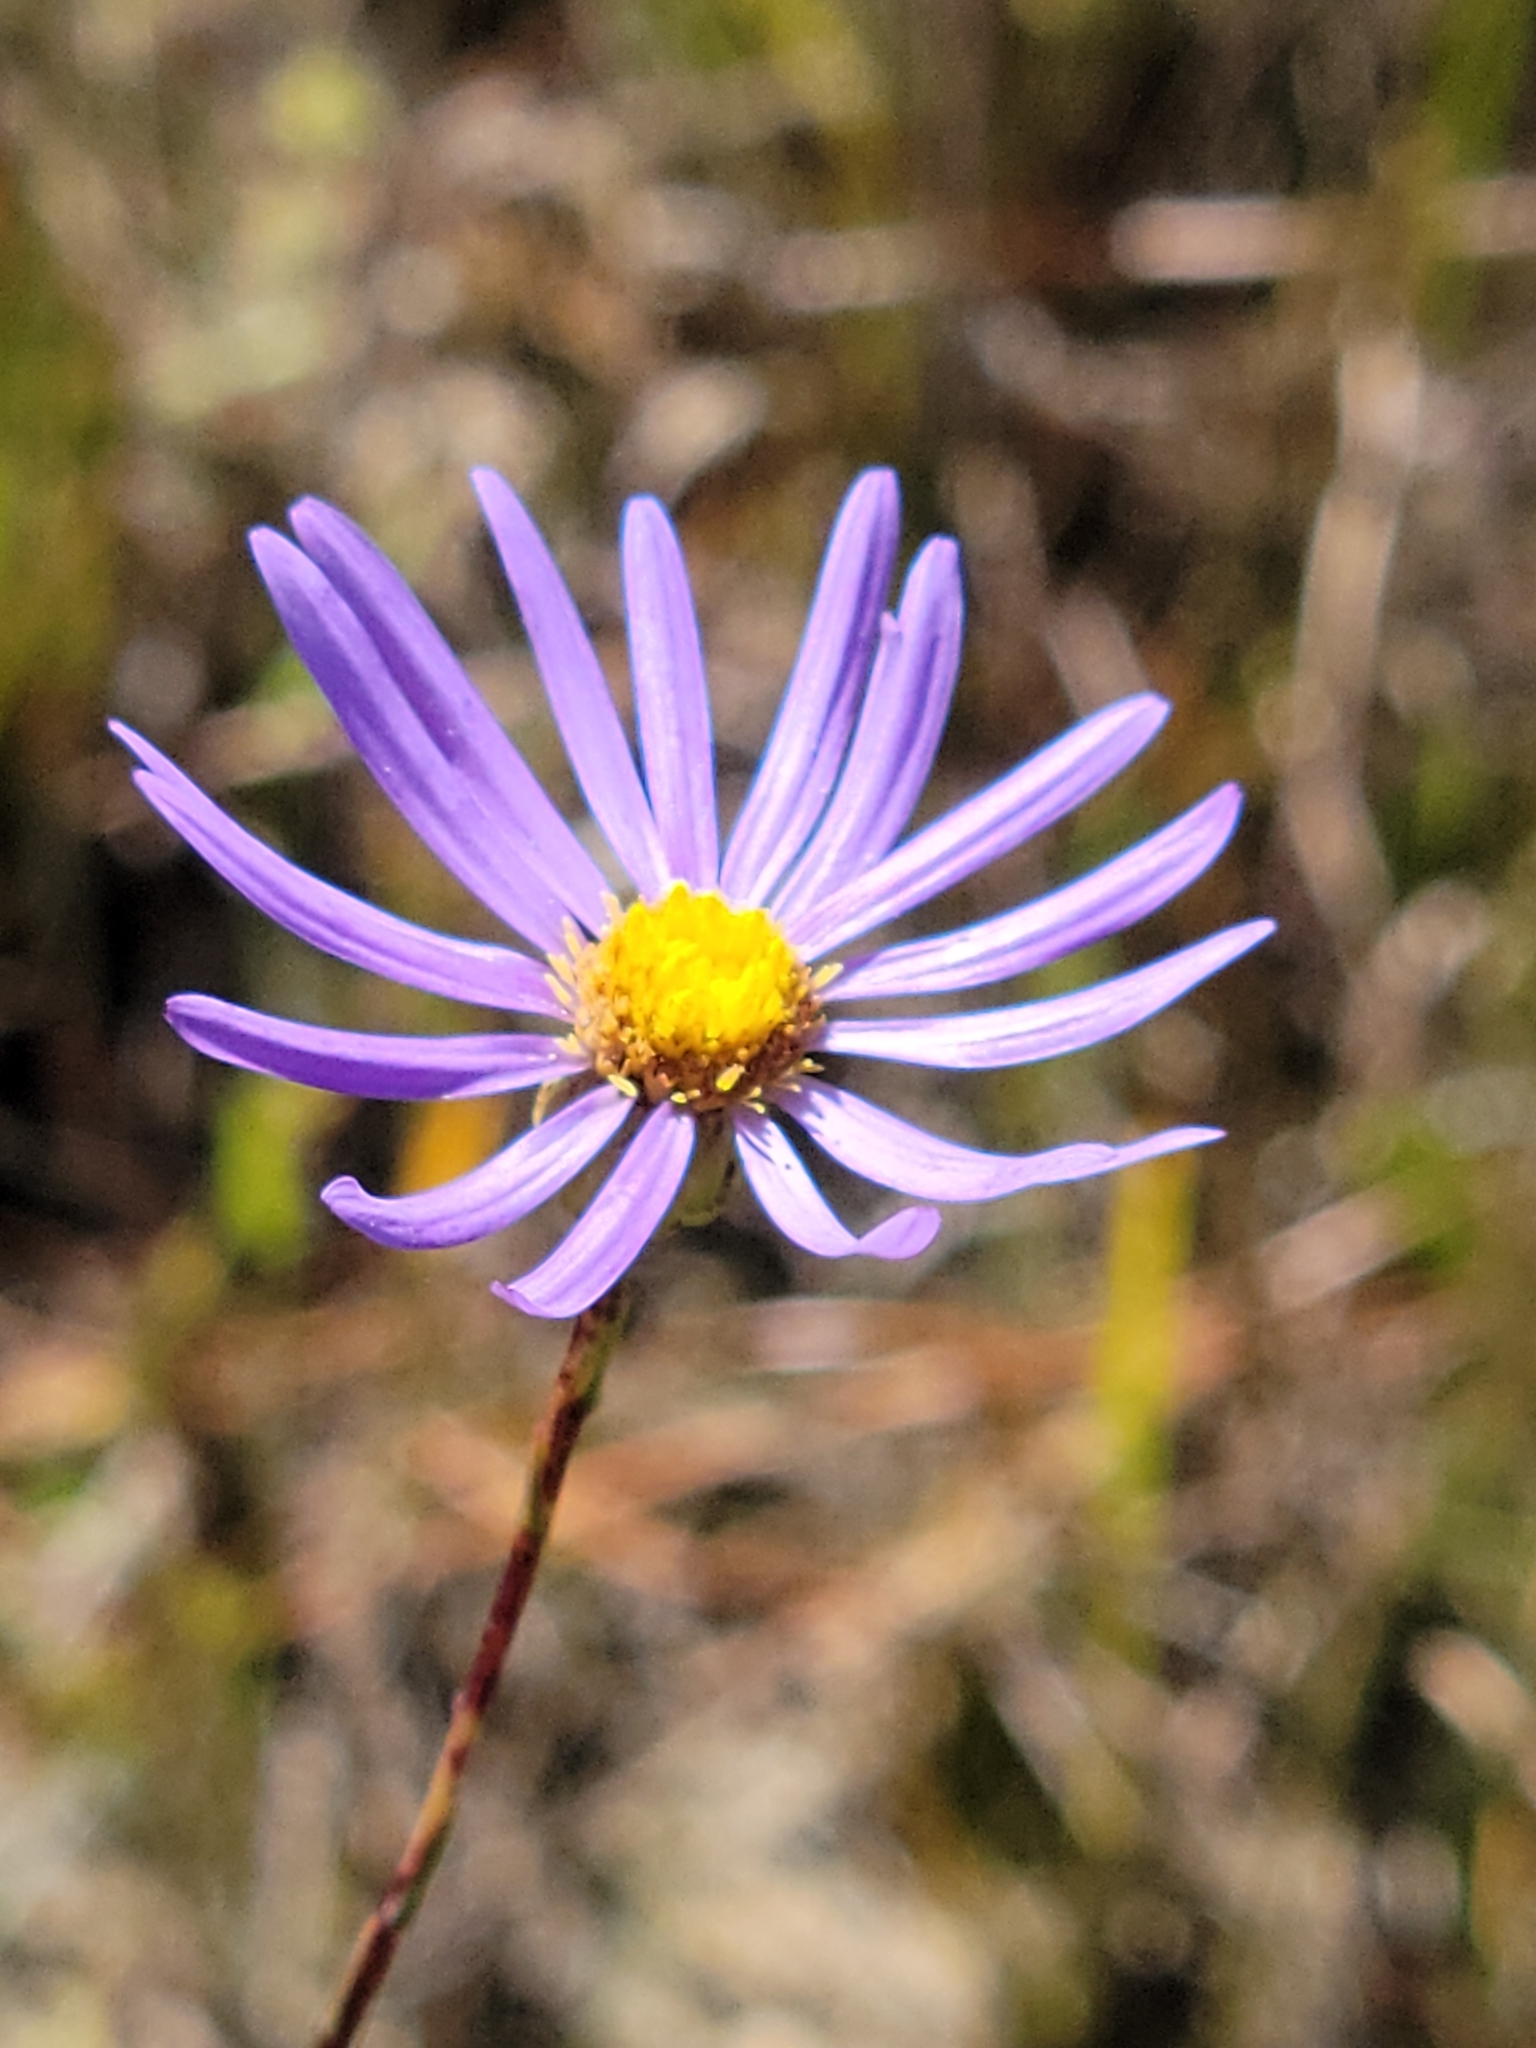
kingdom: Plantae
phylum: Tracheophyta
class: Magnoliopsida
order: Asterales
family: Asteraceae
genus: Symphyotrichum
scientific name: Symphyotrichum chapmanii
